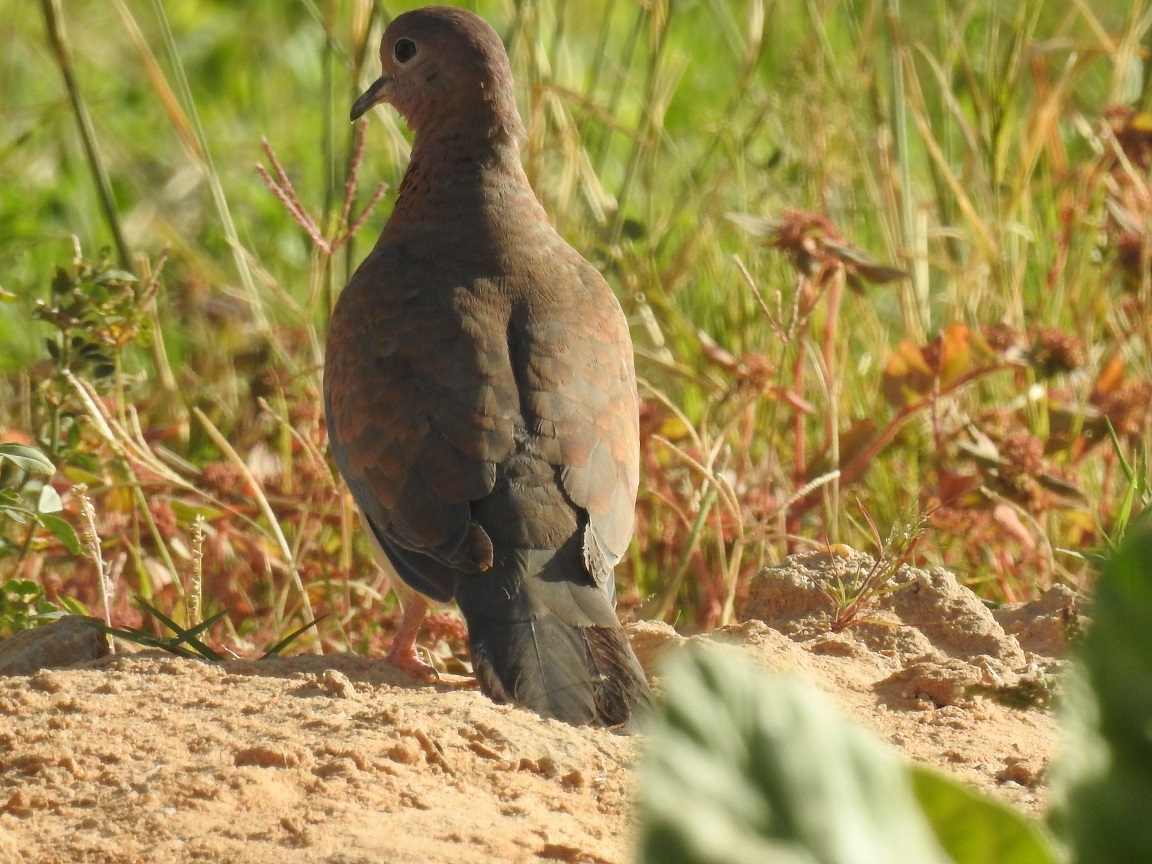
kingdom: Animalia
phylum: Chordata
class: Aves
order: Columbiformes
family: Columbidae
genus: Spilopelia
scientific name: Spilopelia senegalensis
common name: Laughing dove
